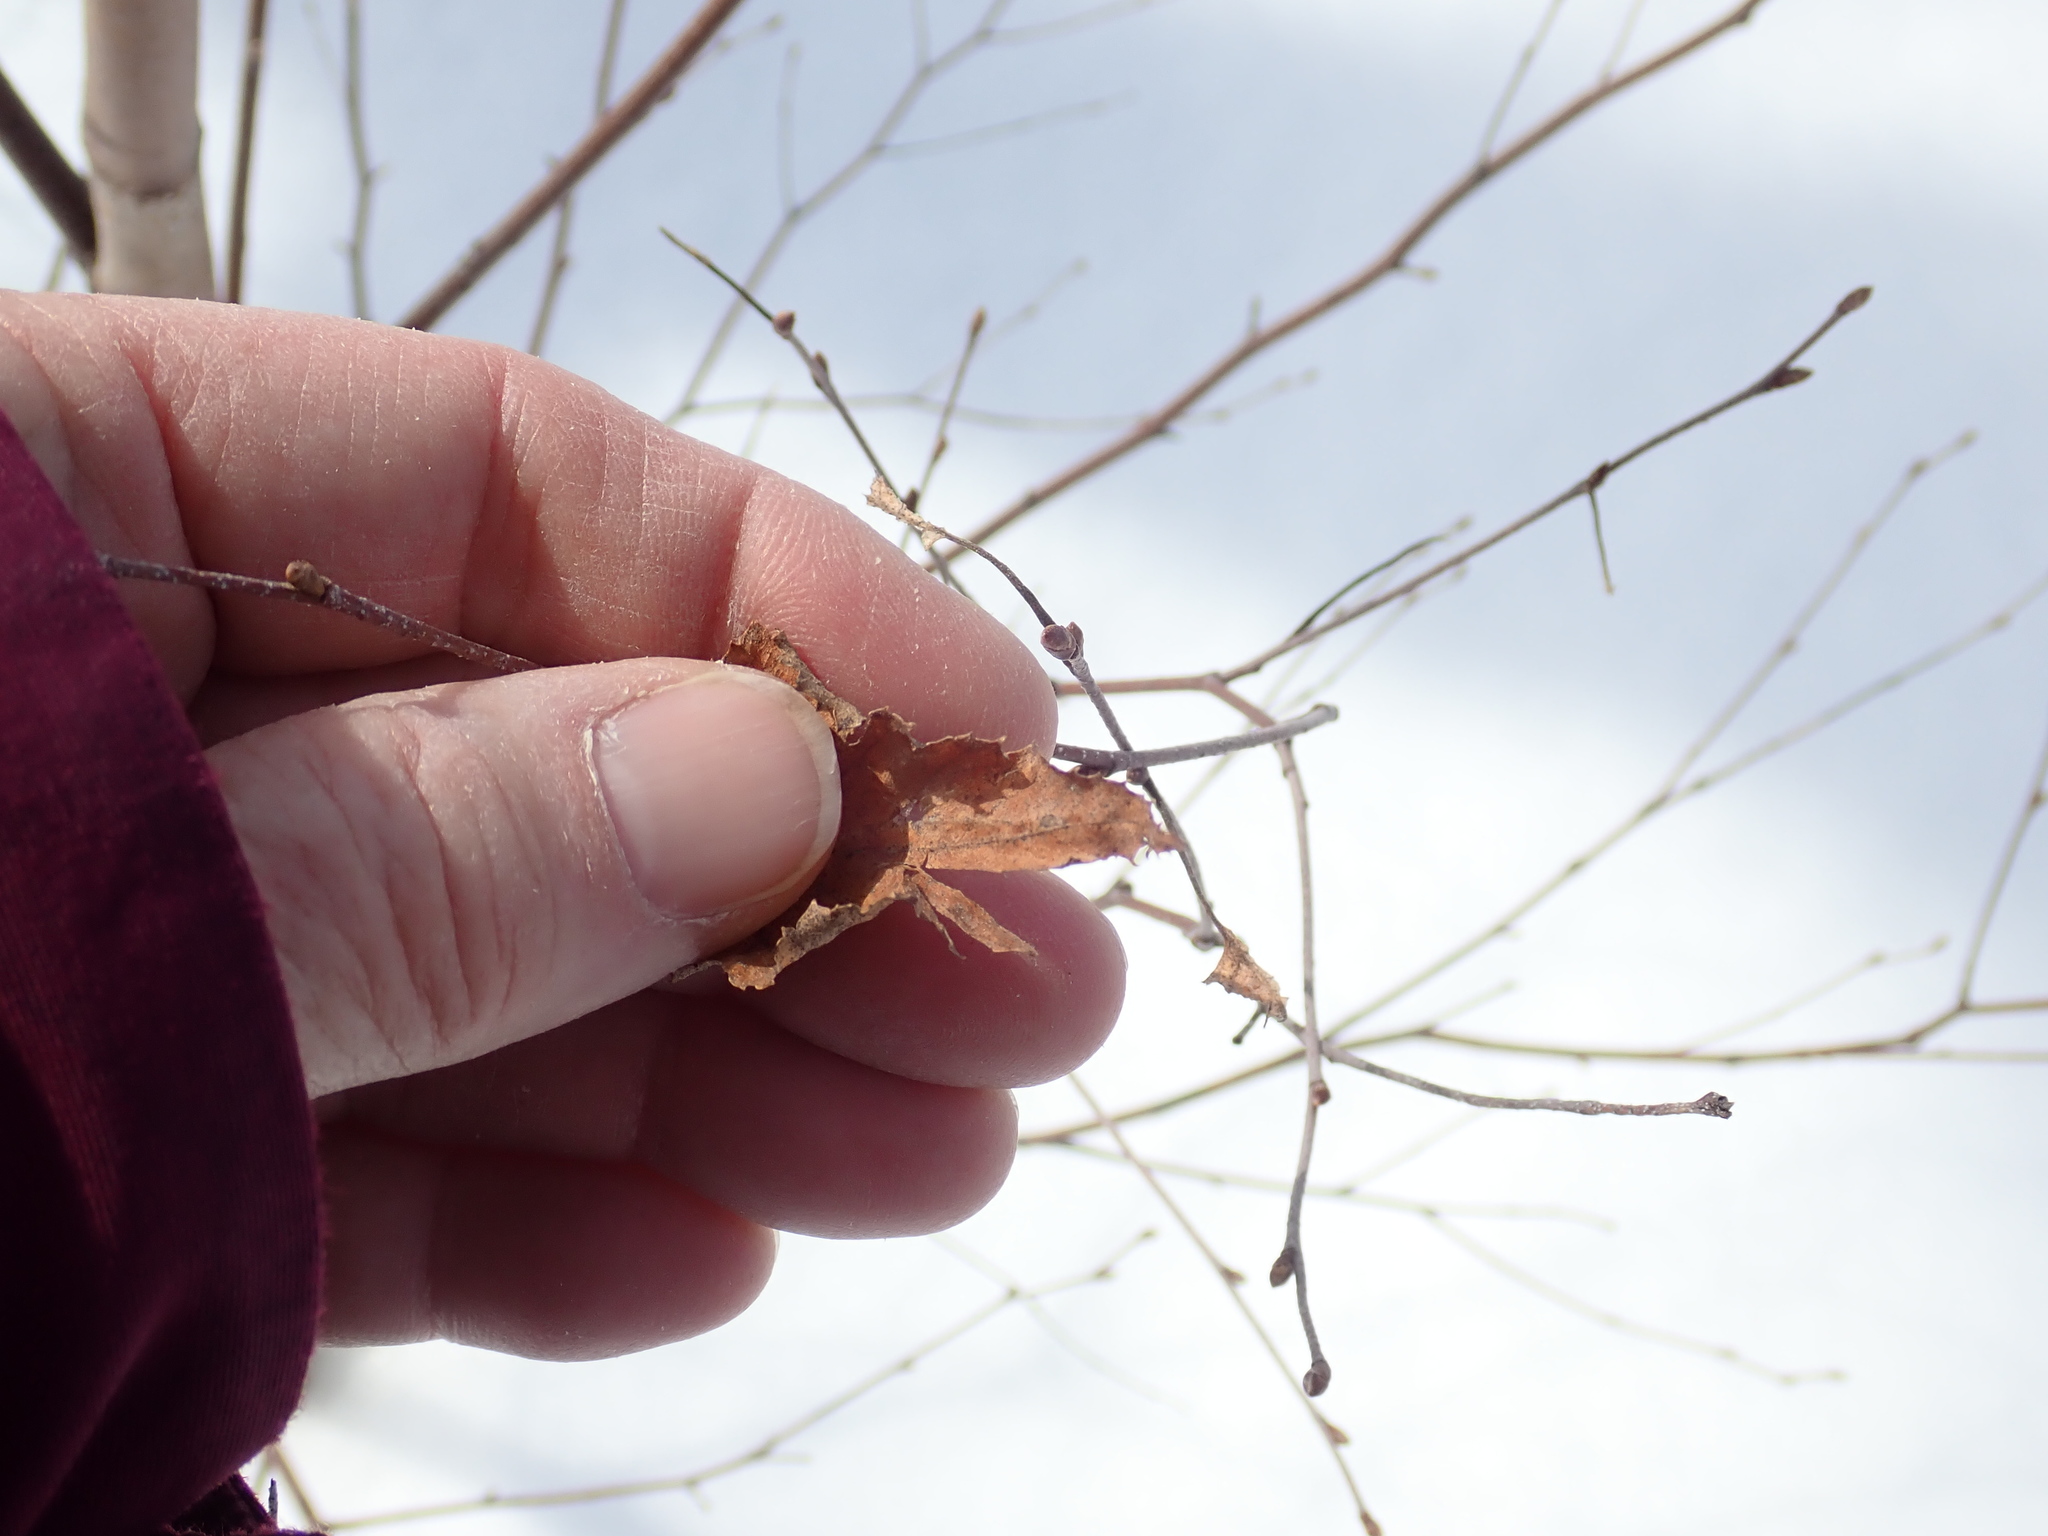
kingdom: Plantae
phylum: Tracheophyta
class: Magnoliopsida
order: Fagales
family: Betulaceae
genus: Betula
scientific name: Betula populifolia
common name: Fire birch
